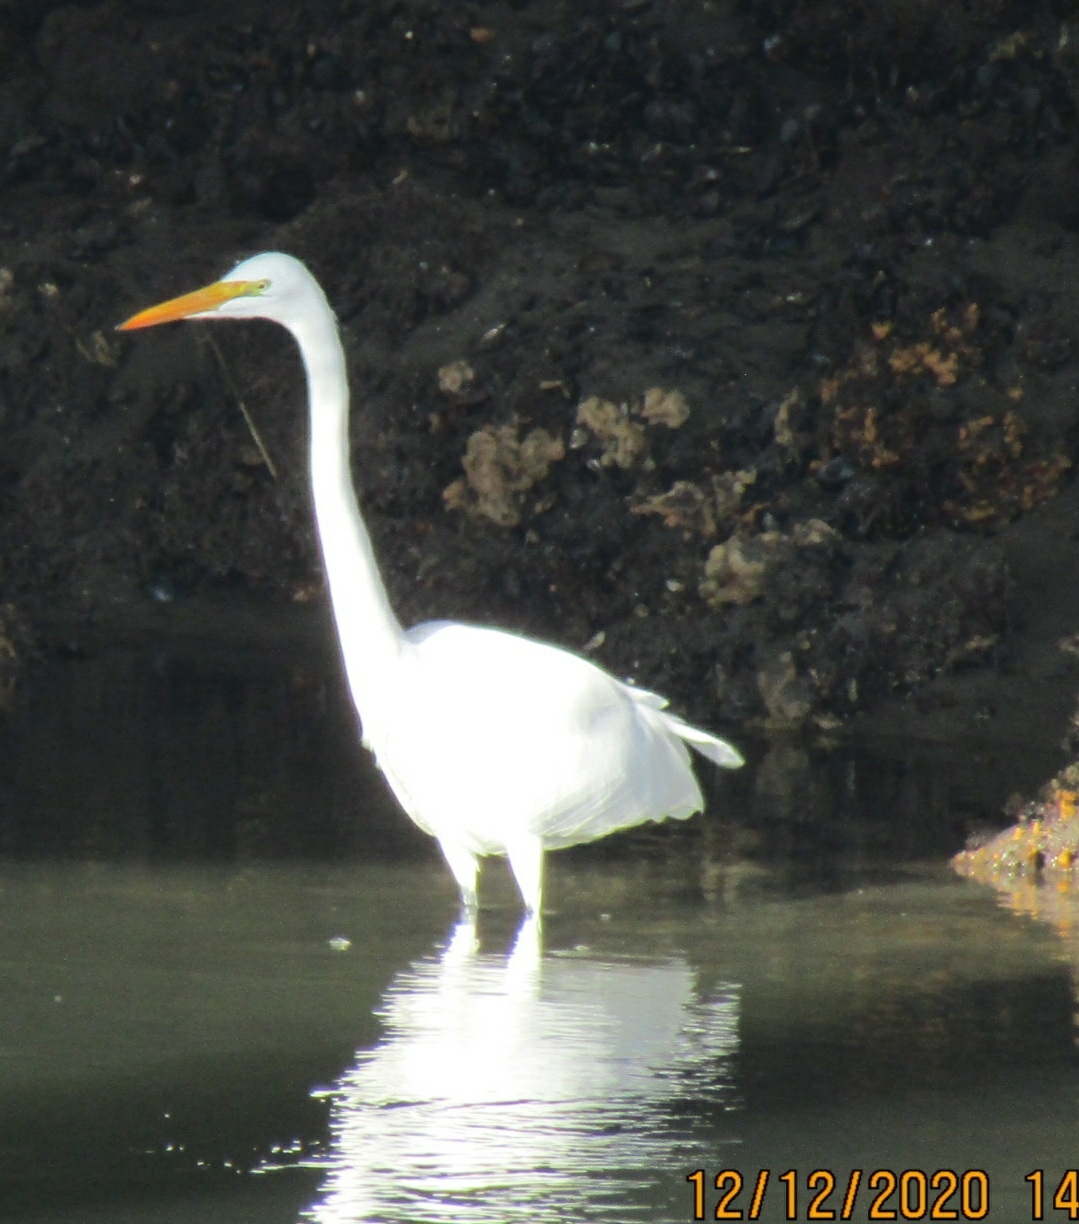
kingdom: Animalia
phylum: Chordata
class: Aves
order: Pelecaniformes
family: Ardeidae
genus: Ardea
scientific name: Ardea alba
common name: Great egret
